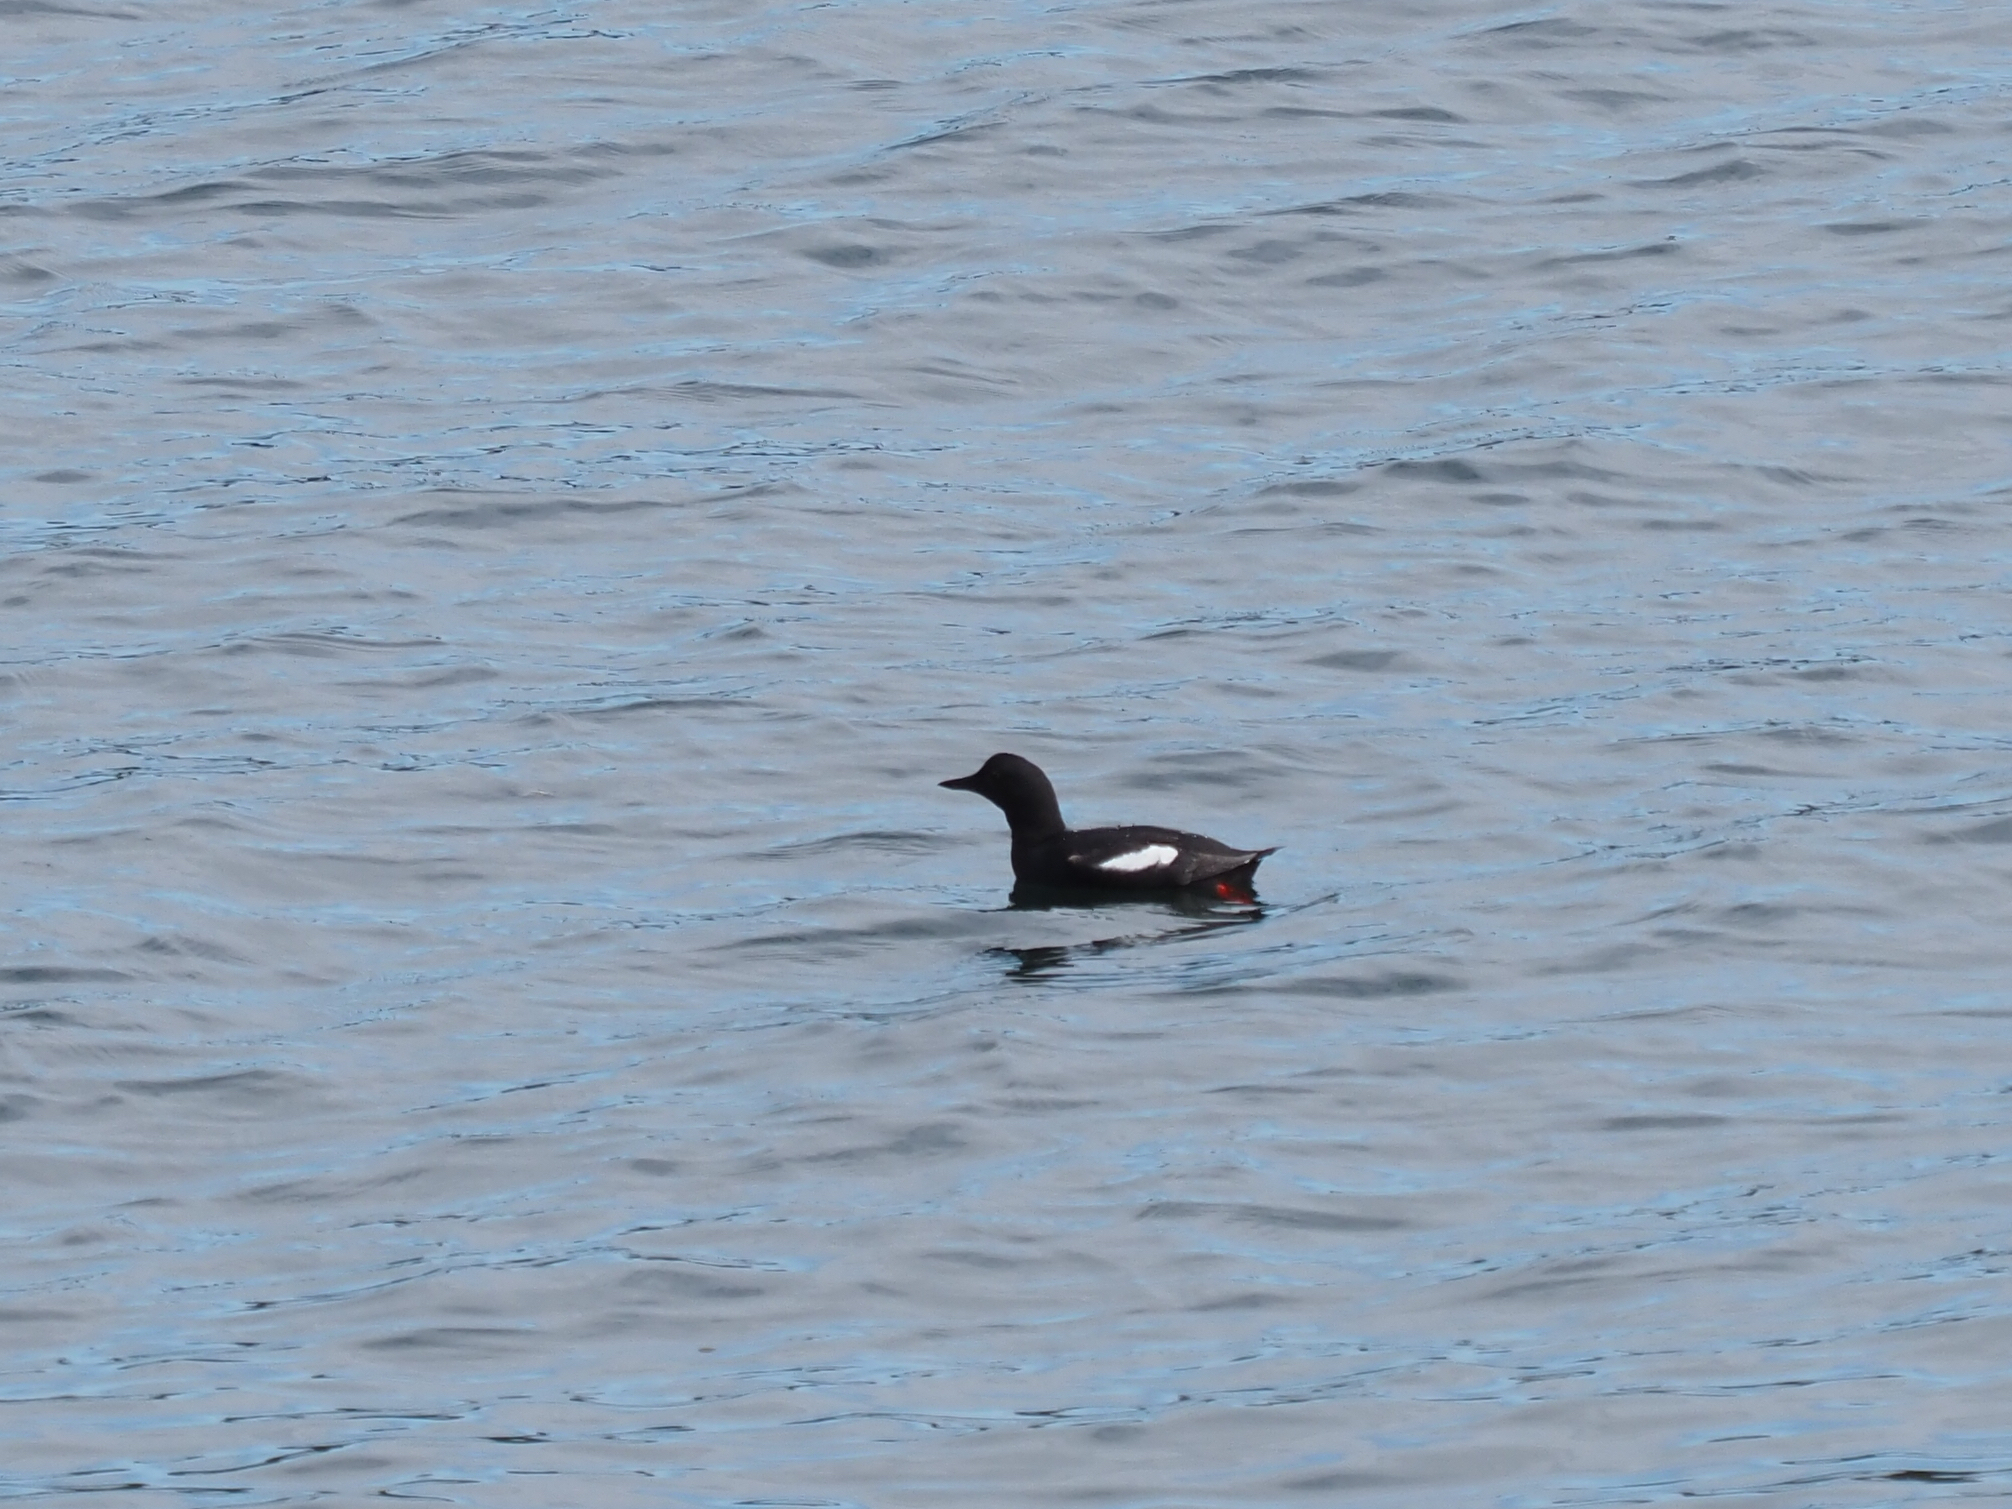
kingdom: Animalia
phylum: Chordata
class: Aves
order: Charadriiformes
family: Alcidae
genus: Cepphus
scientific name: Cepphus columba
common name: Pigeon guillemot
